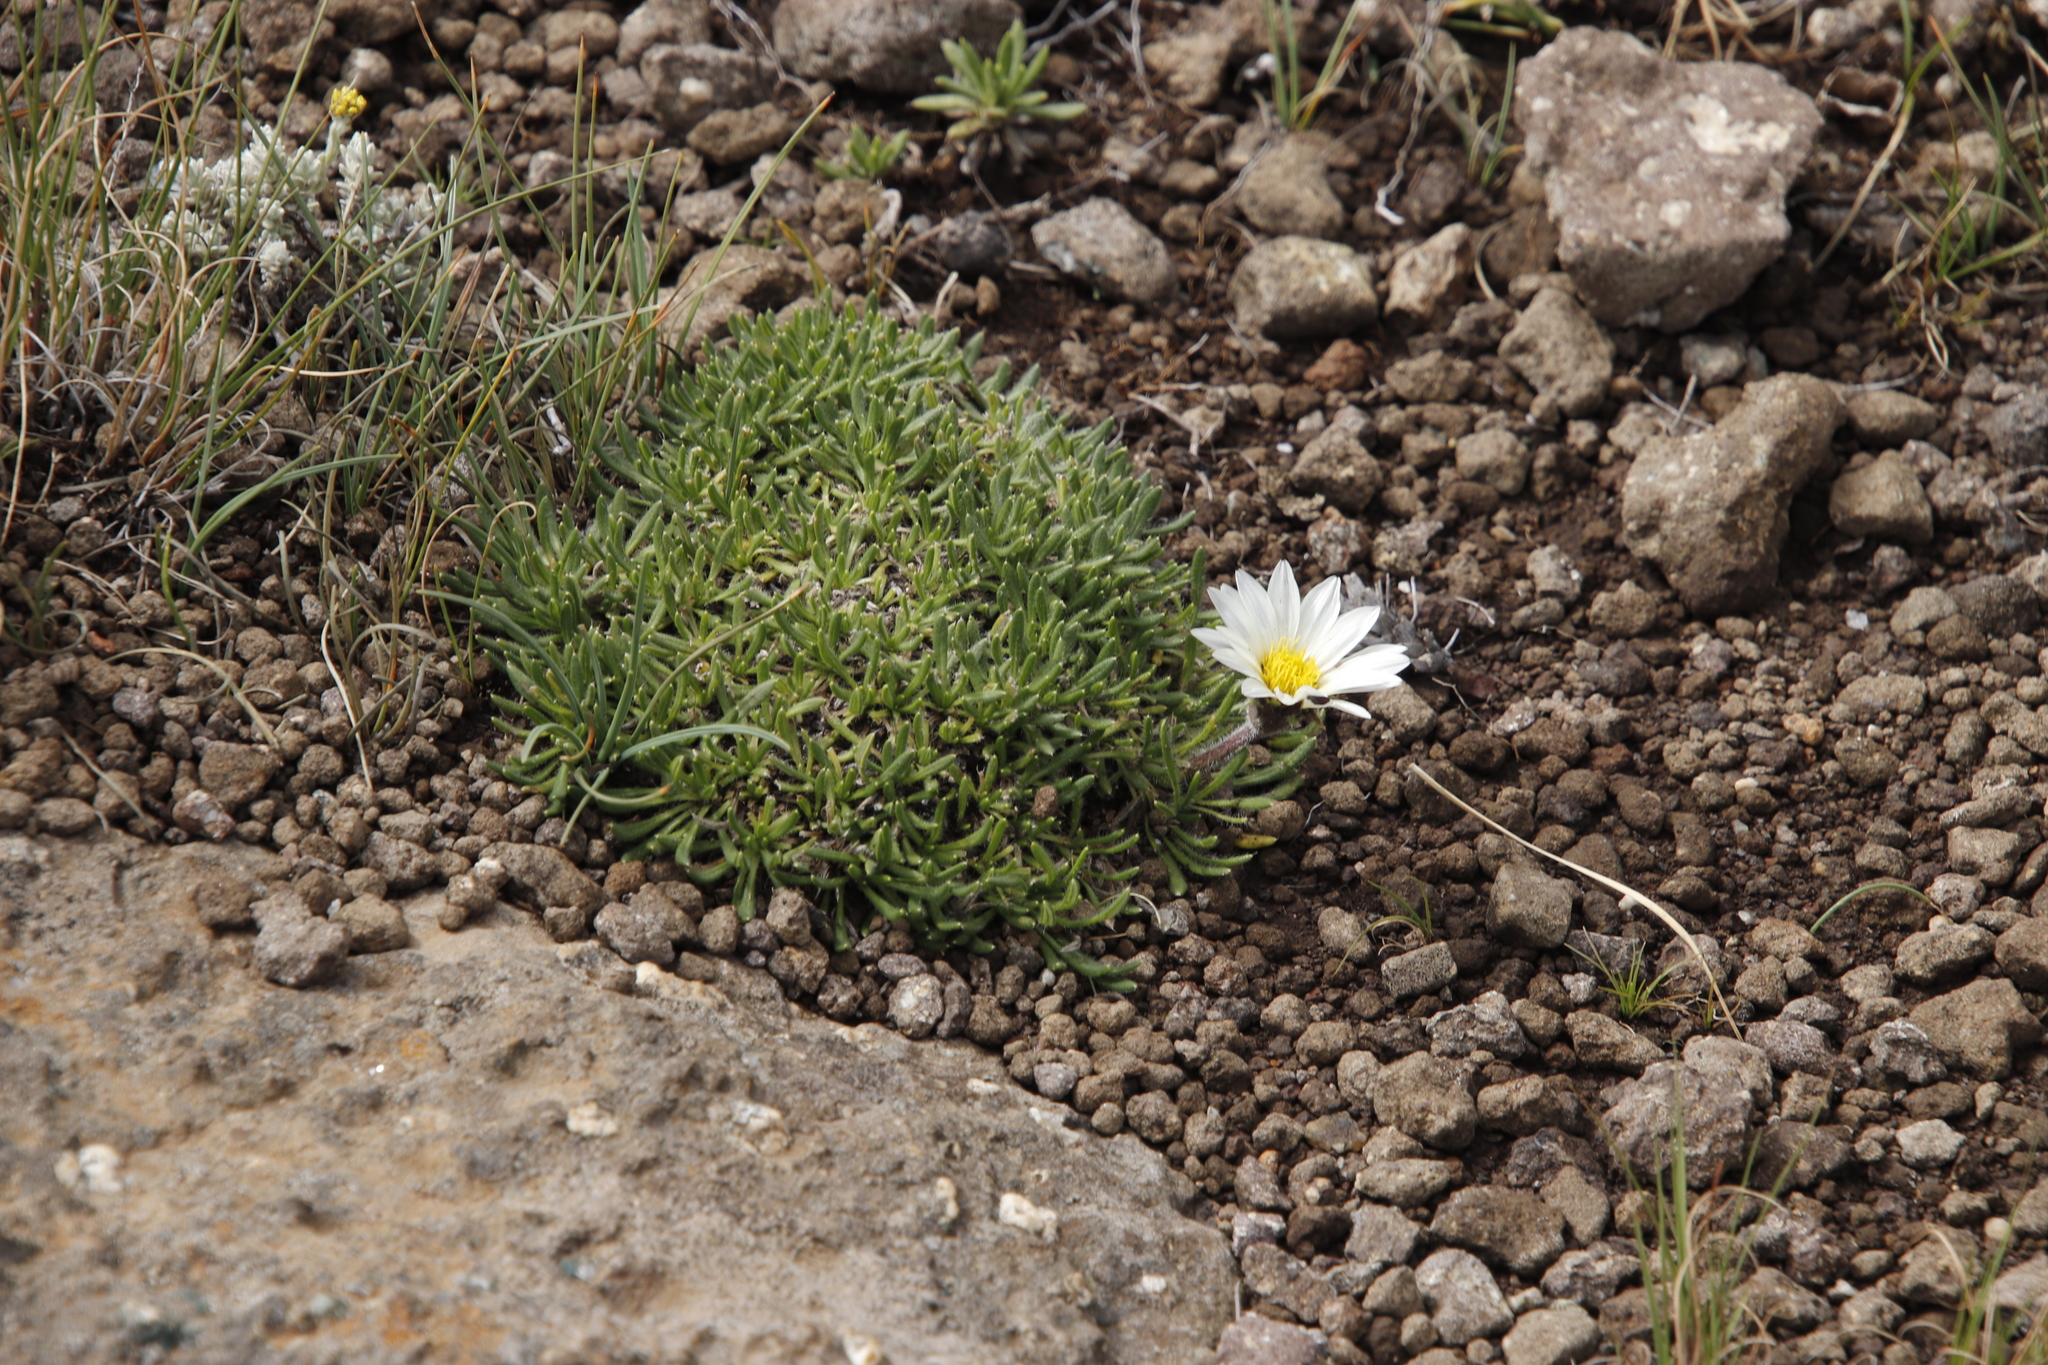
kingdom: Plantae
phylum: Tracheophyta
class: Magnoliopsida
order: Asterales
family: Asteraceae
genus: Roessleria
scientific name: Roessleria armerioides
